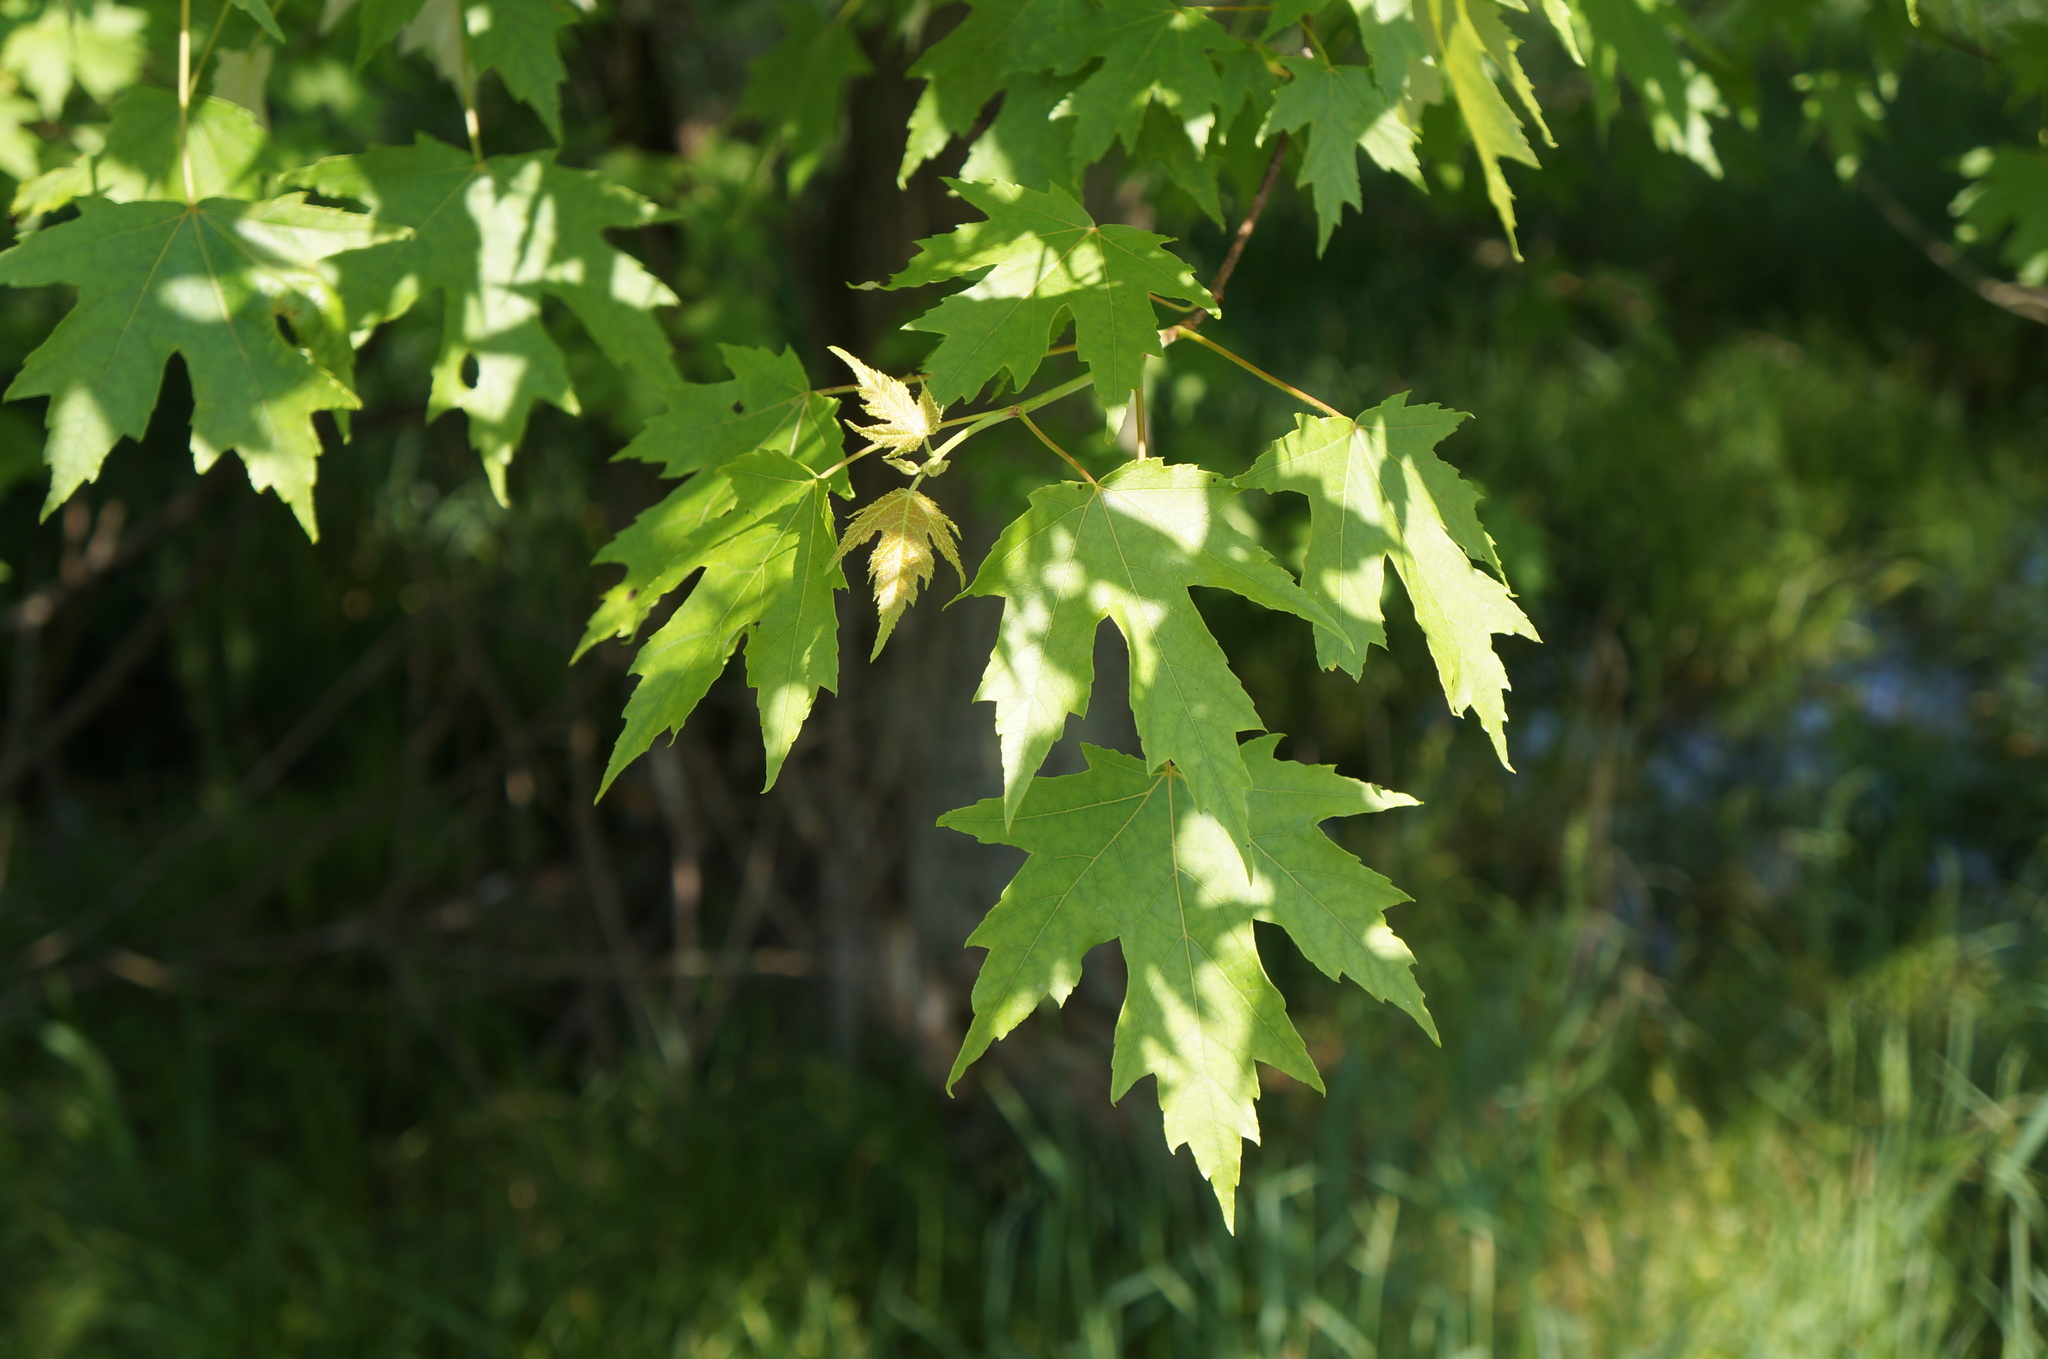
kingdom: Plantae
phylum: Tracheophyta
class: Magnoliopsida
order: Sapindales
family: Sapindaceae
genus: Acer
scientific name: Acer saccharinum
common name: Silver maple
